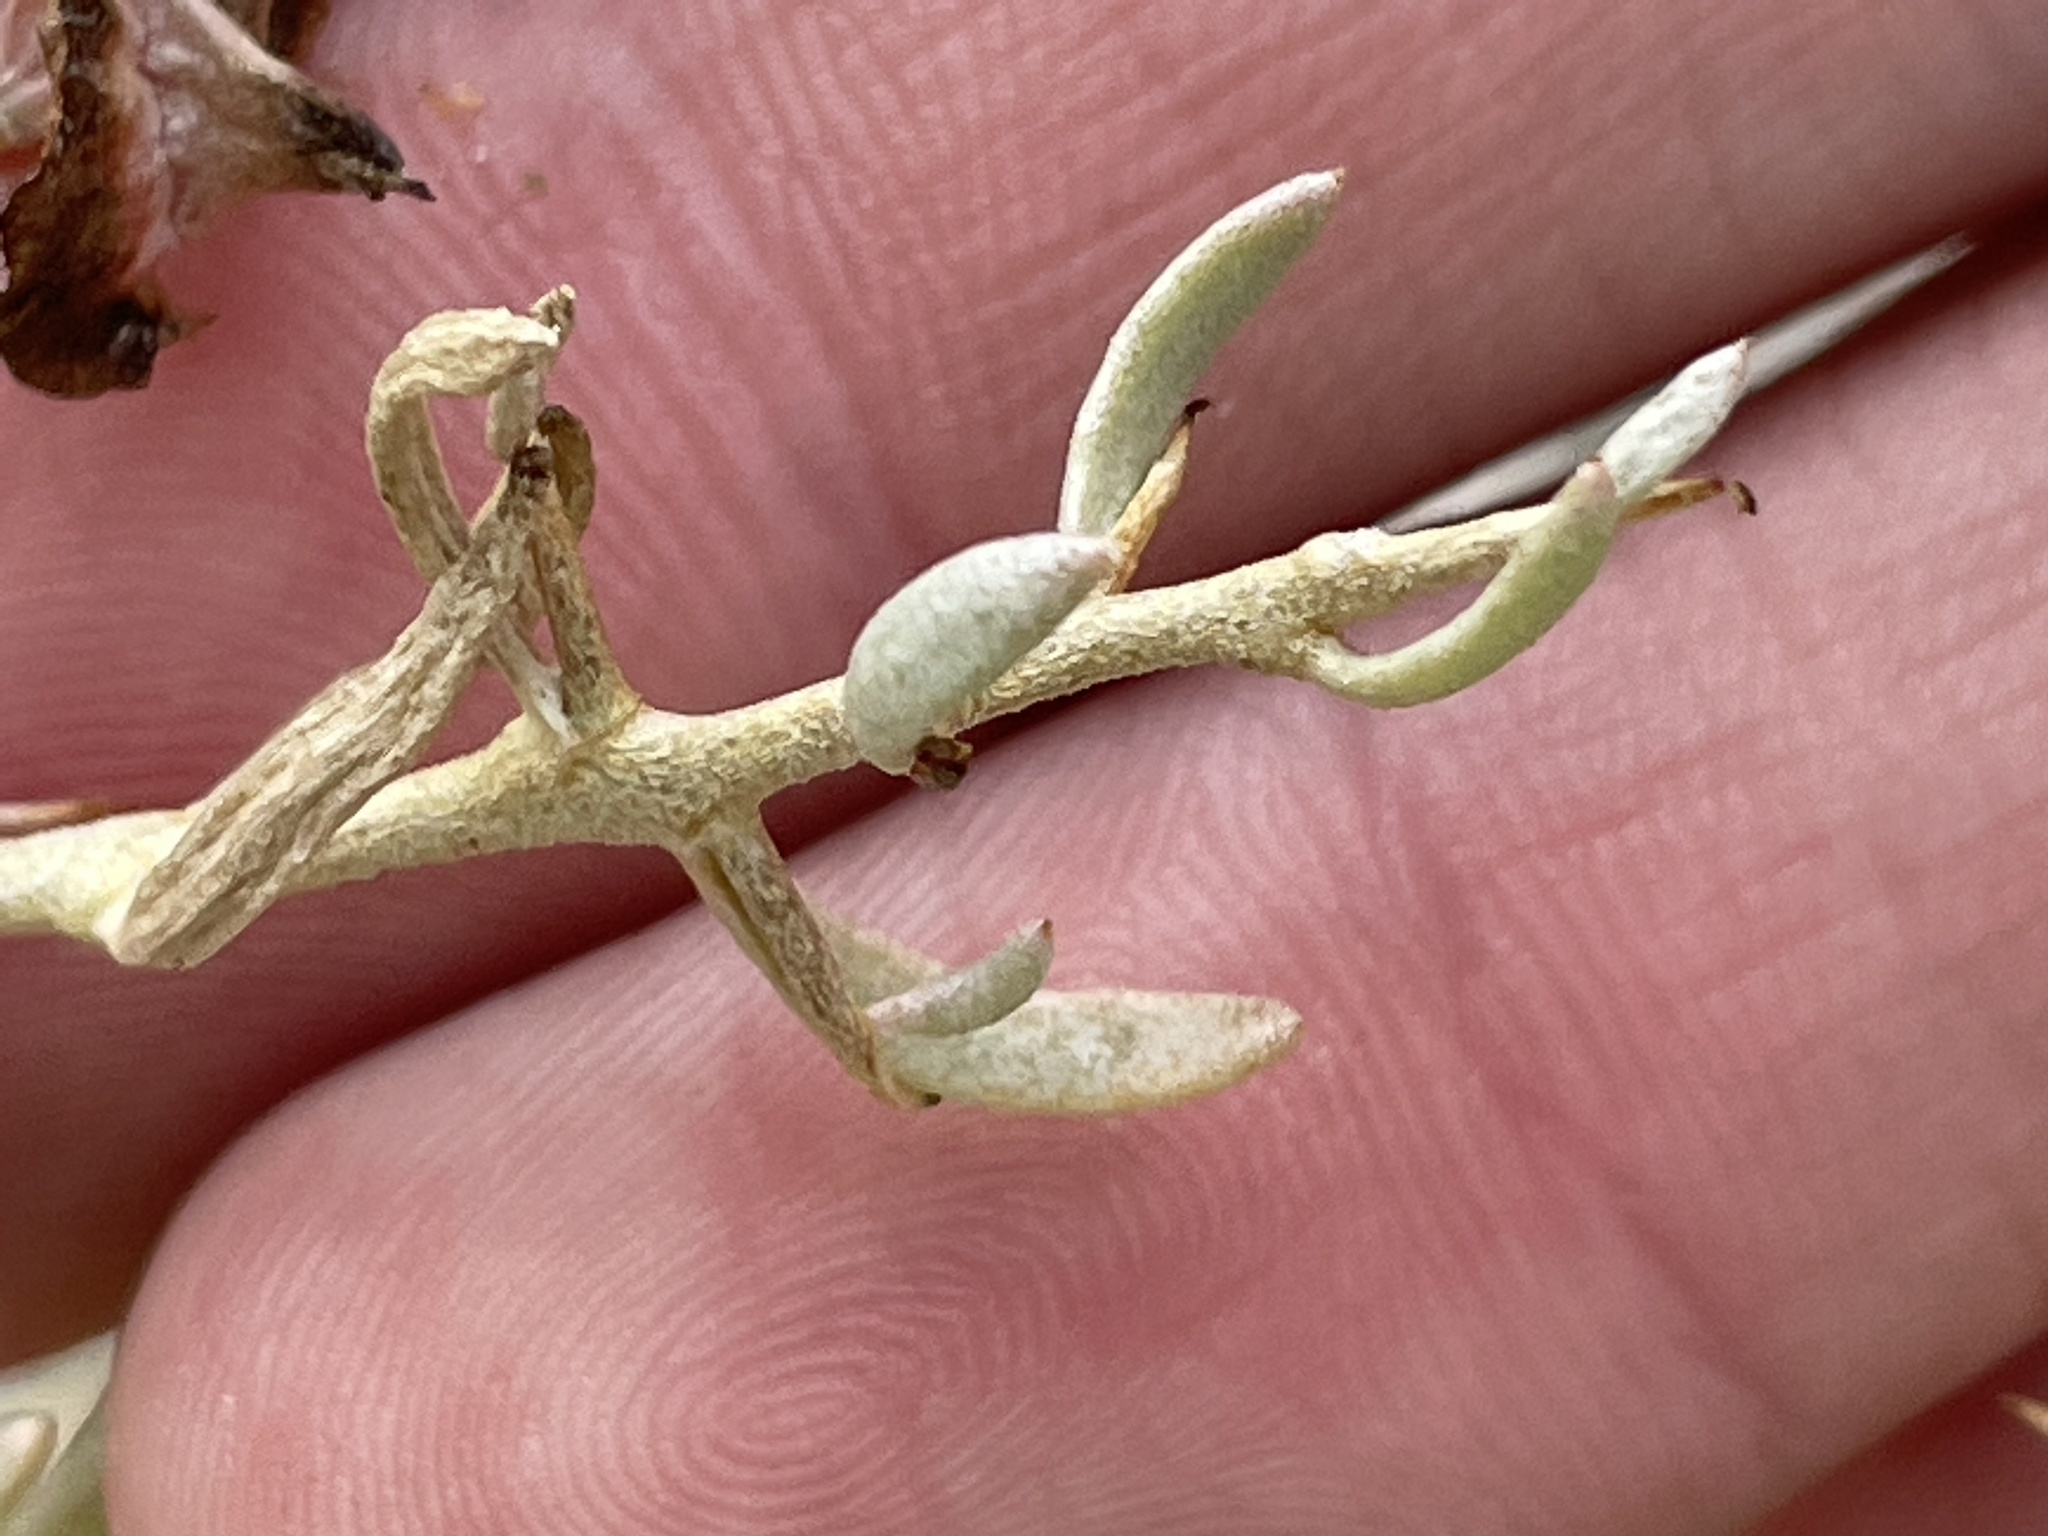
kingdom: Plantae
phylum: Tracheophyta
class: Magnoliopsida
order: Caryophyllales
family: Sarcobataceae
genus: Sarcobatus
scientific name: Sarcobatus baileyi
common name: Bailey greasewood
